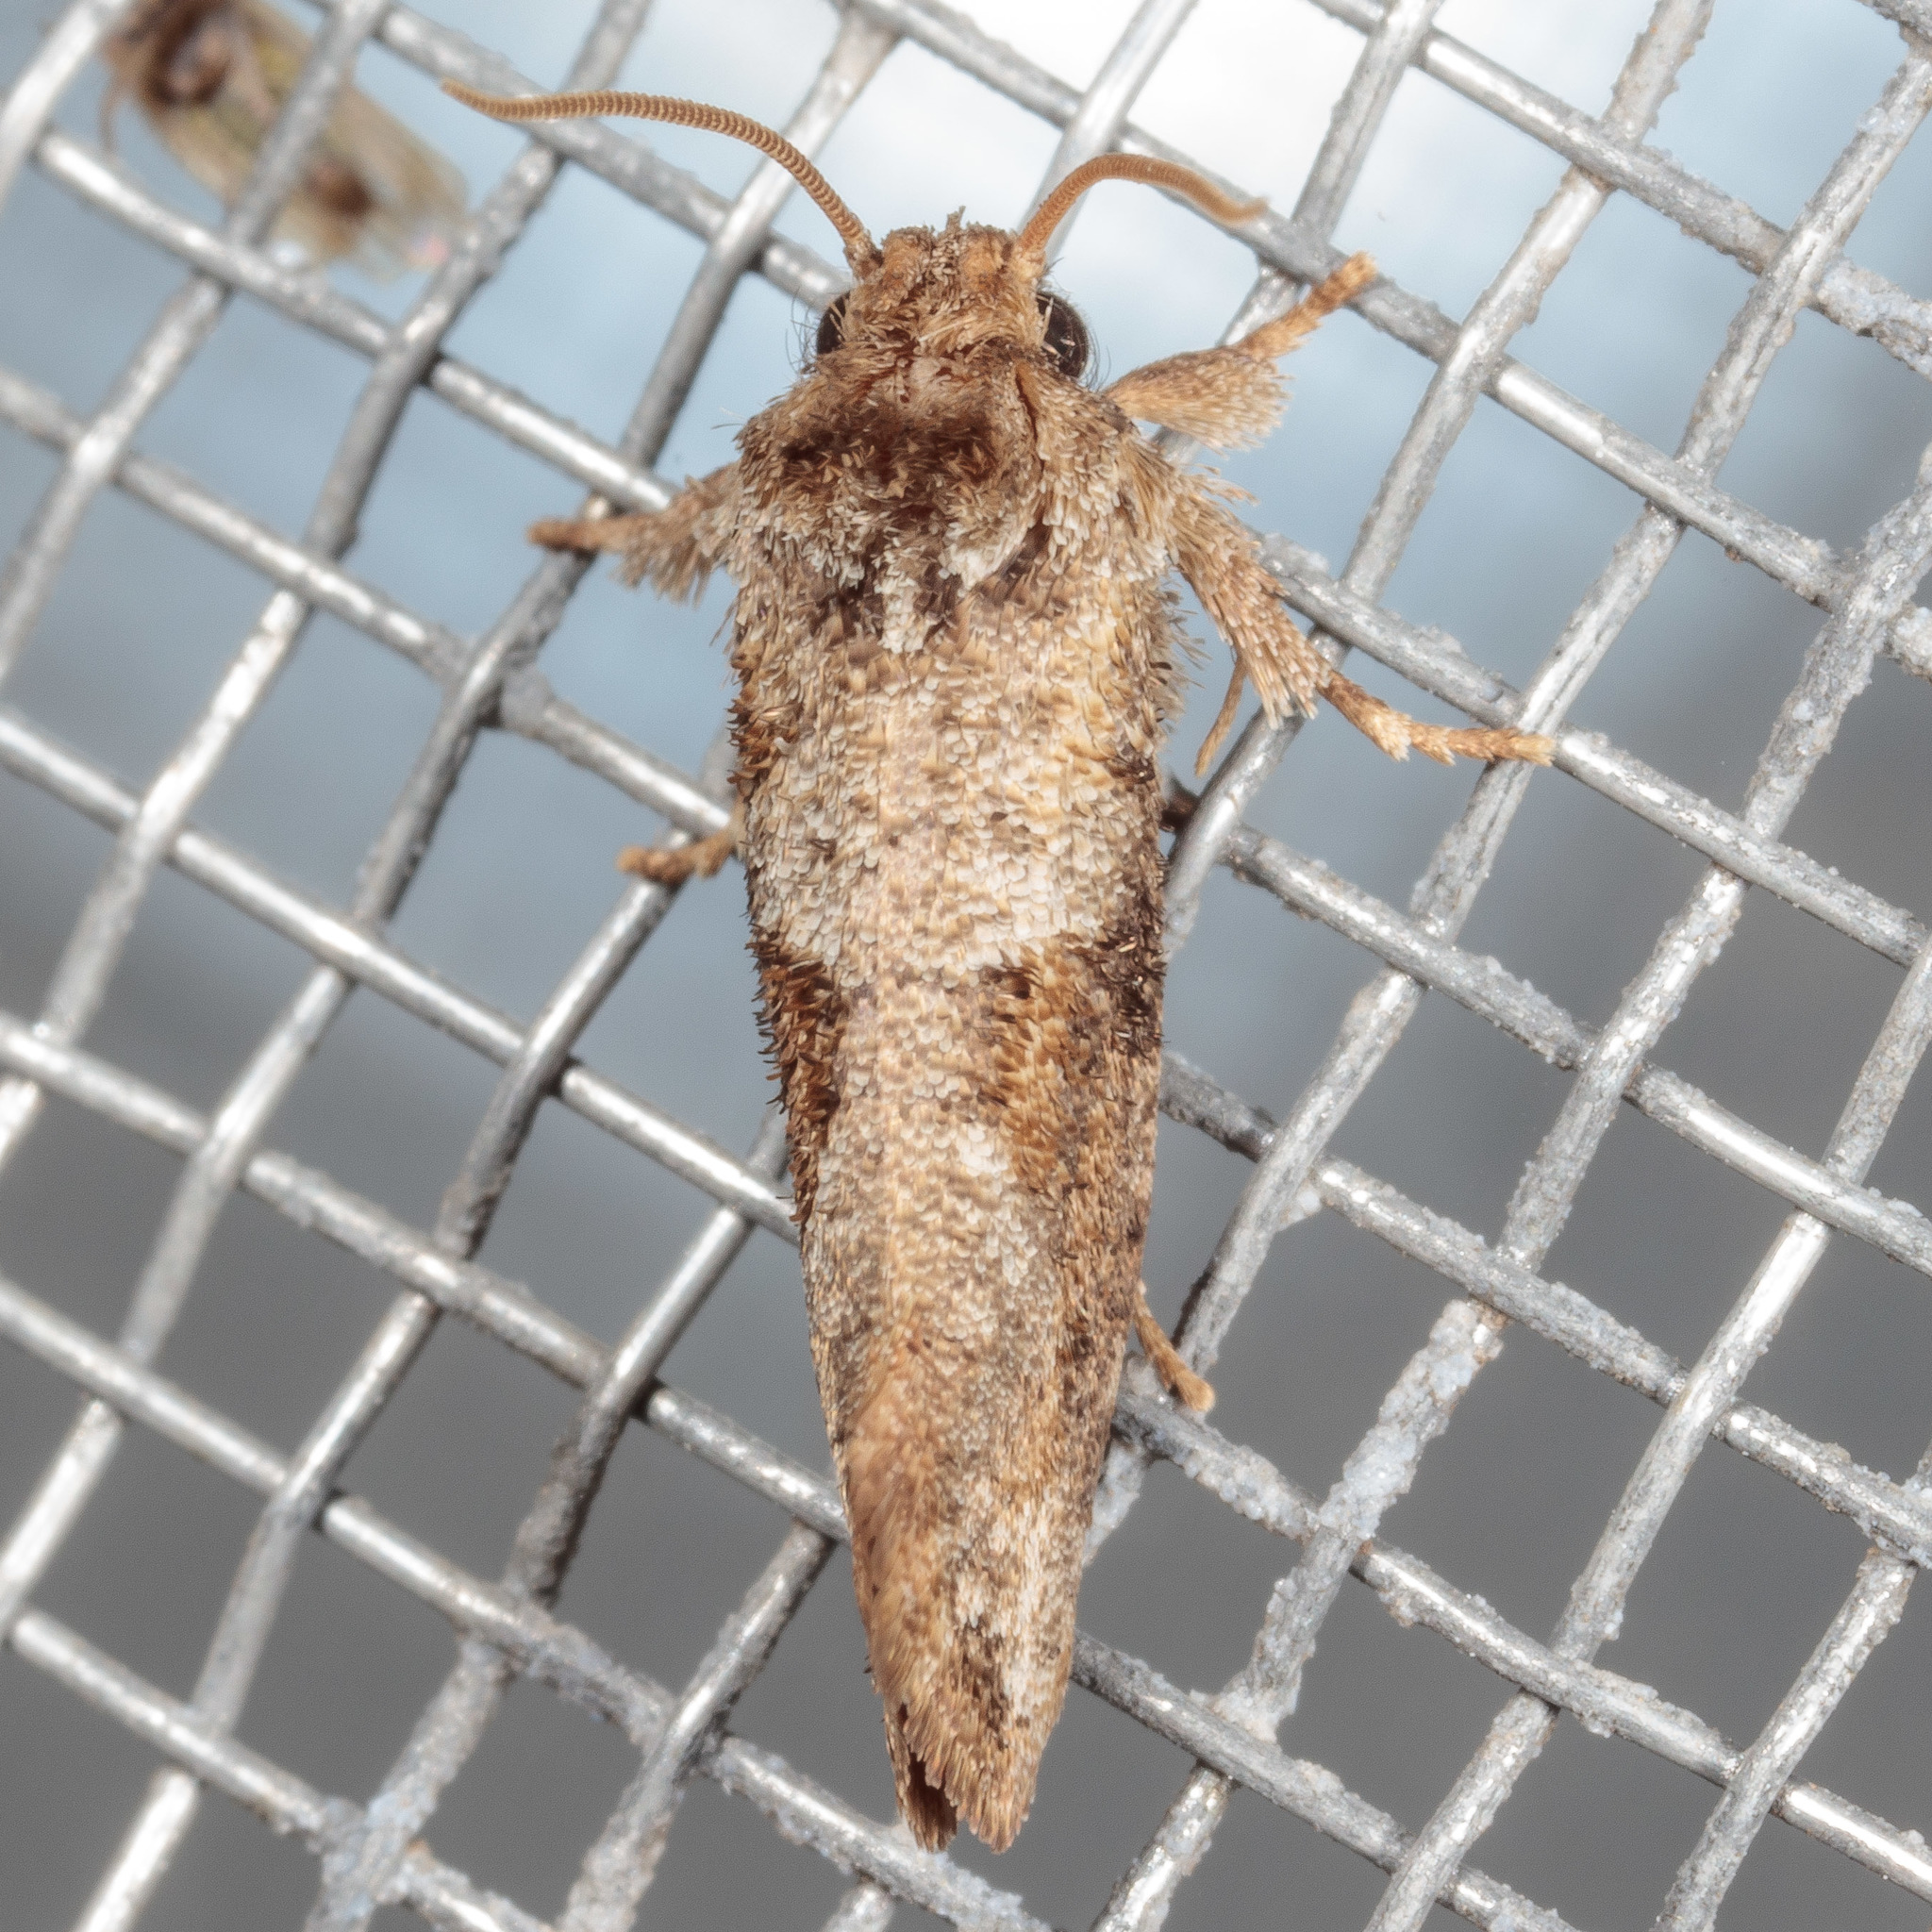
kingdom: Animalia
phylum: Arthropoda
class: Insecta
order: Lepidoptera
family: Tineidae
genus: Acrolophus
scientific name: Acrolophus piger
